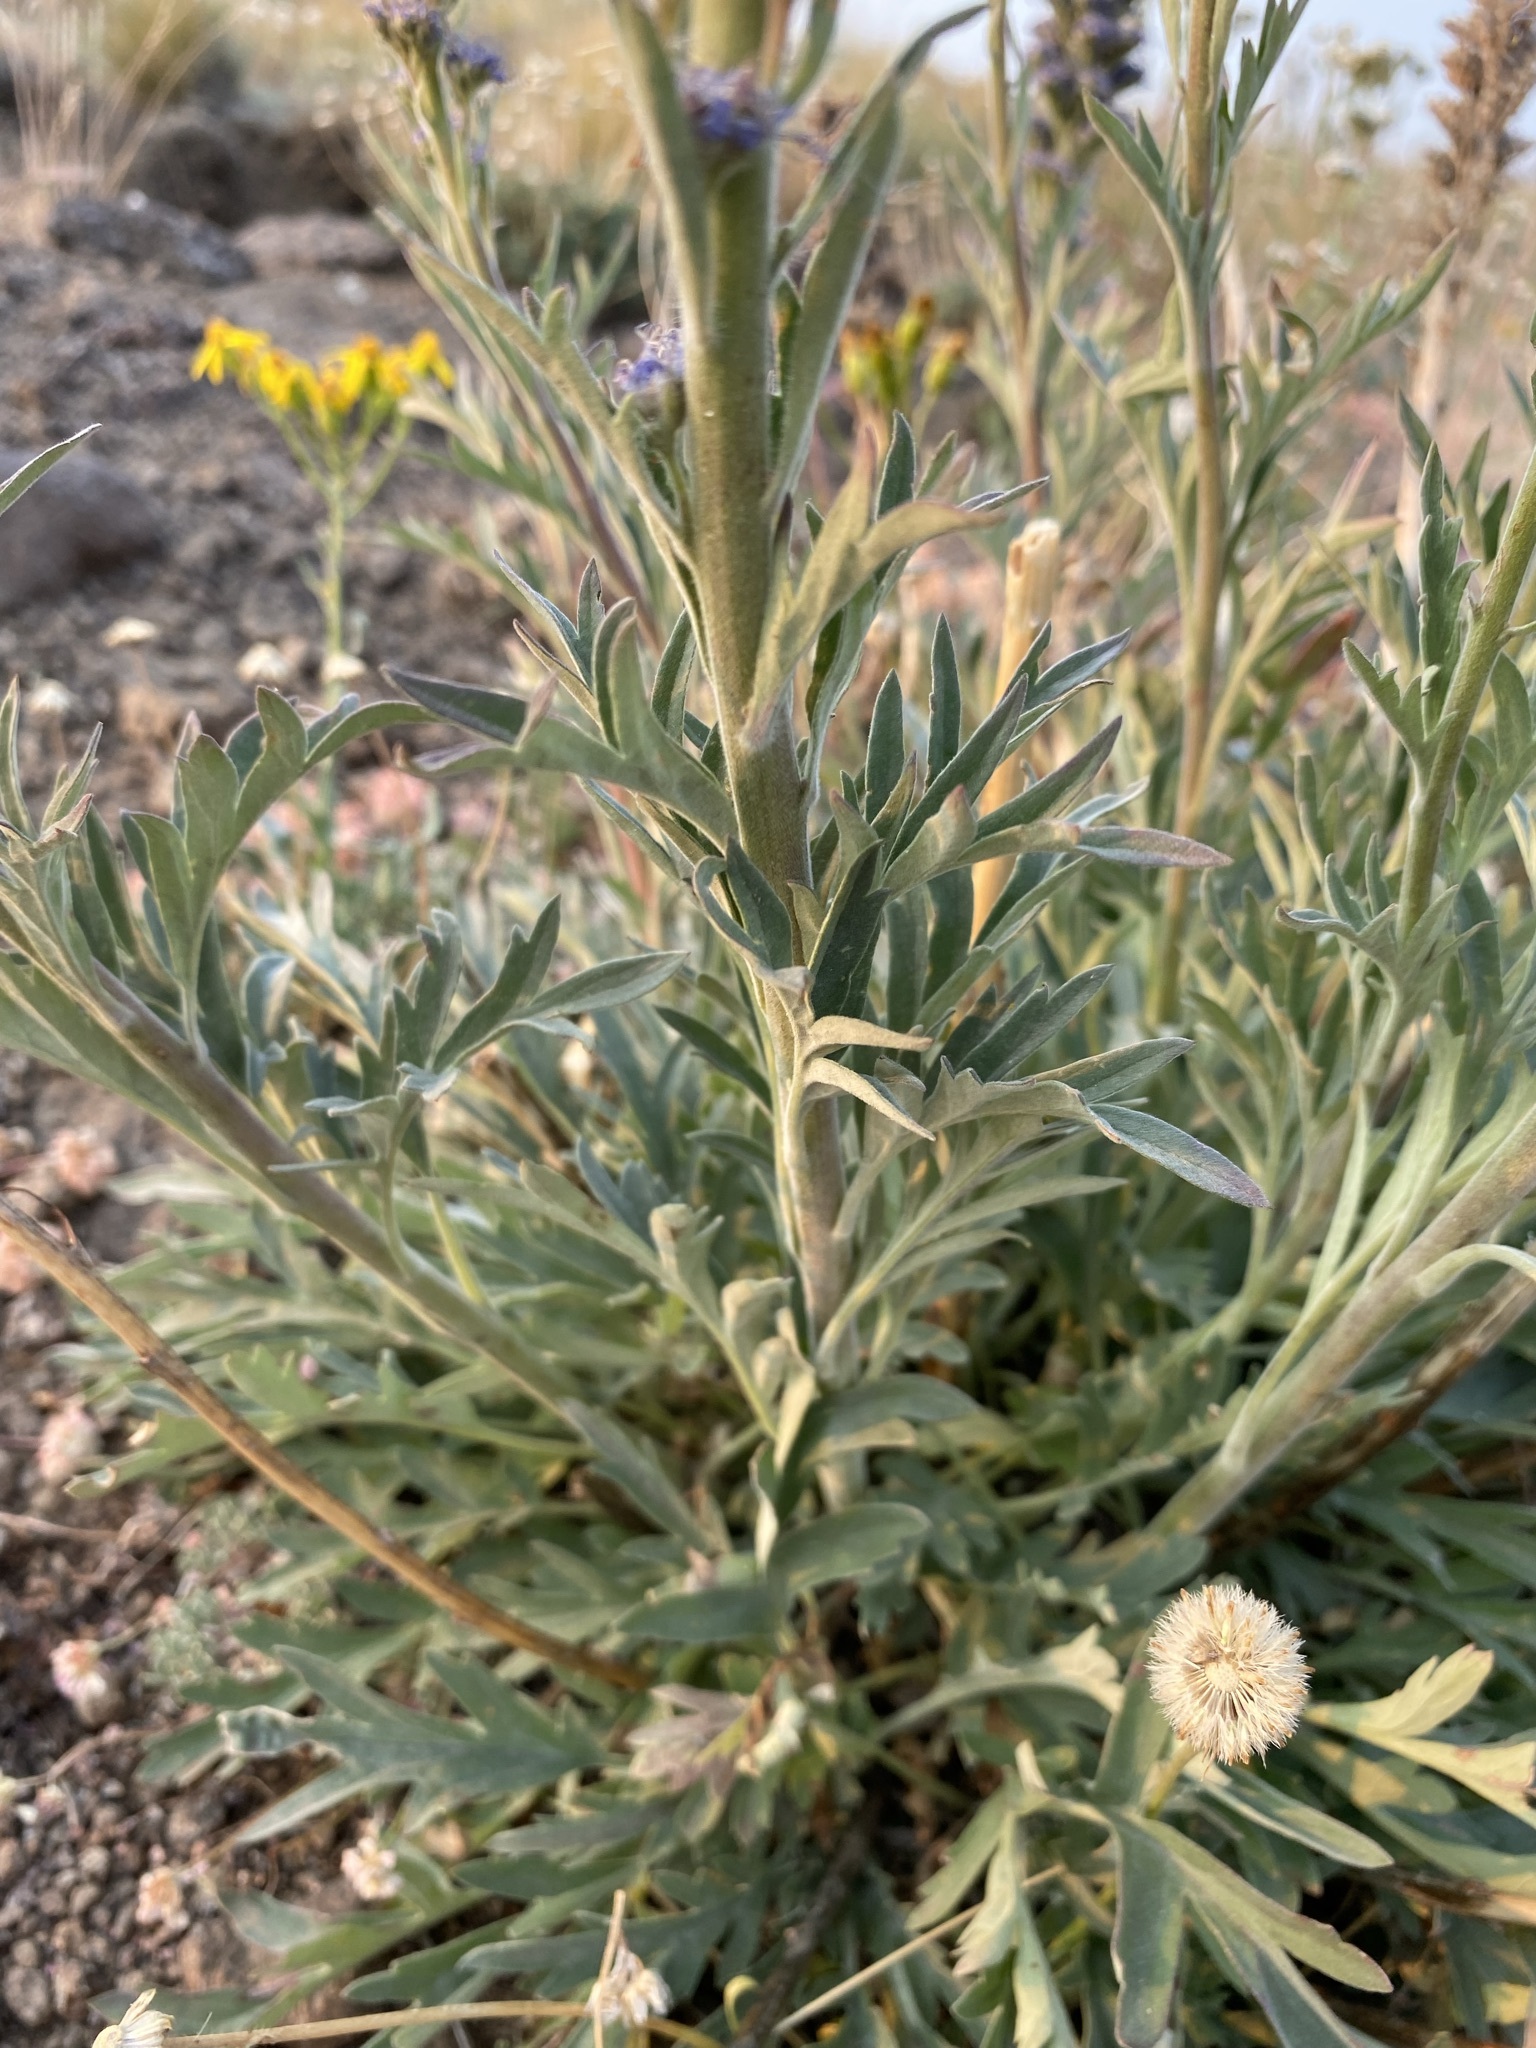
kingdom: Plantae
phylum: Tracheophyta
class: Magnoliopsida
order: Boraginales
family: Hydrophyllaceae
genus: Phacelia
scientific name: Phacelia sericea
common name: Silky phacelia
